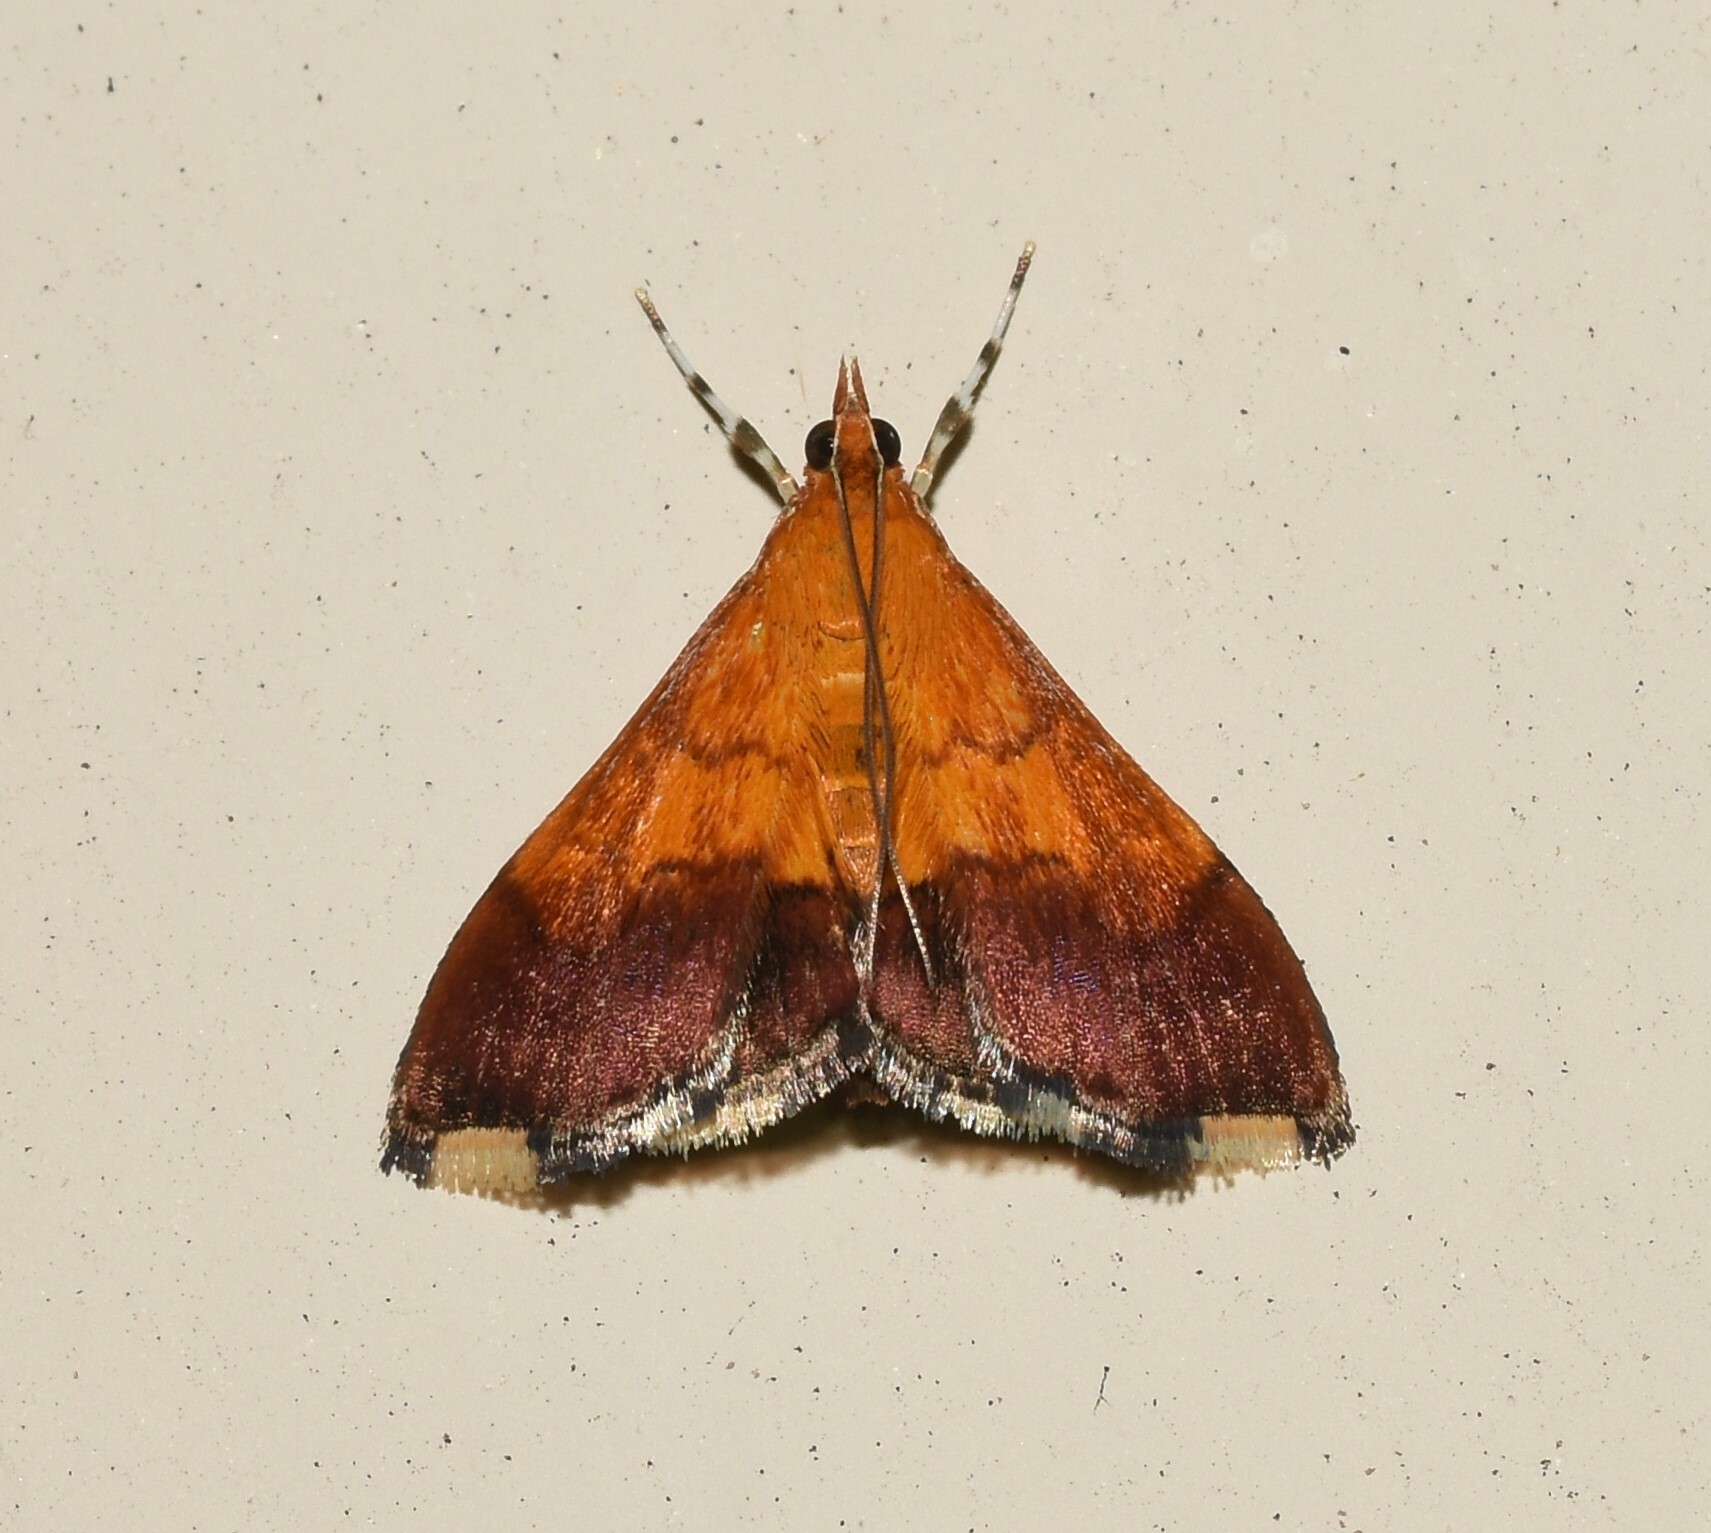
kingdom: Animalia
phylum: Arthropoda
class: Insecta
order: Lepidoptera
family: Crambidae
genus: Pyrausta
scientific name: Pyrausta bicoloralis
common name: Bicolored pyrausta moth
